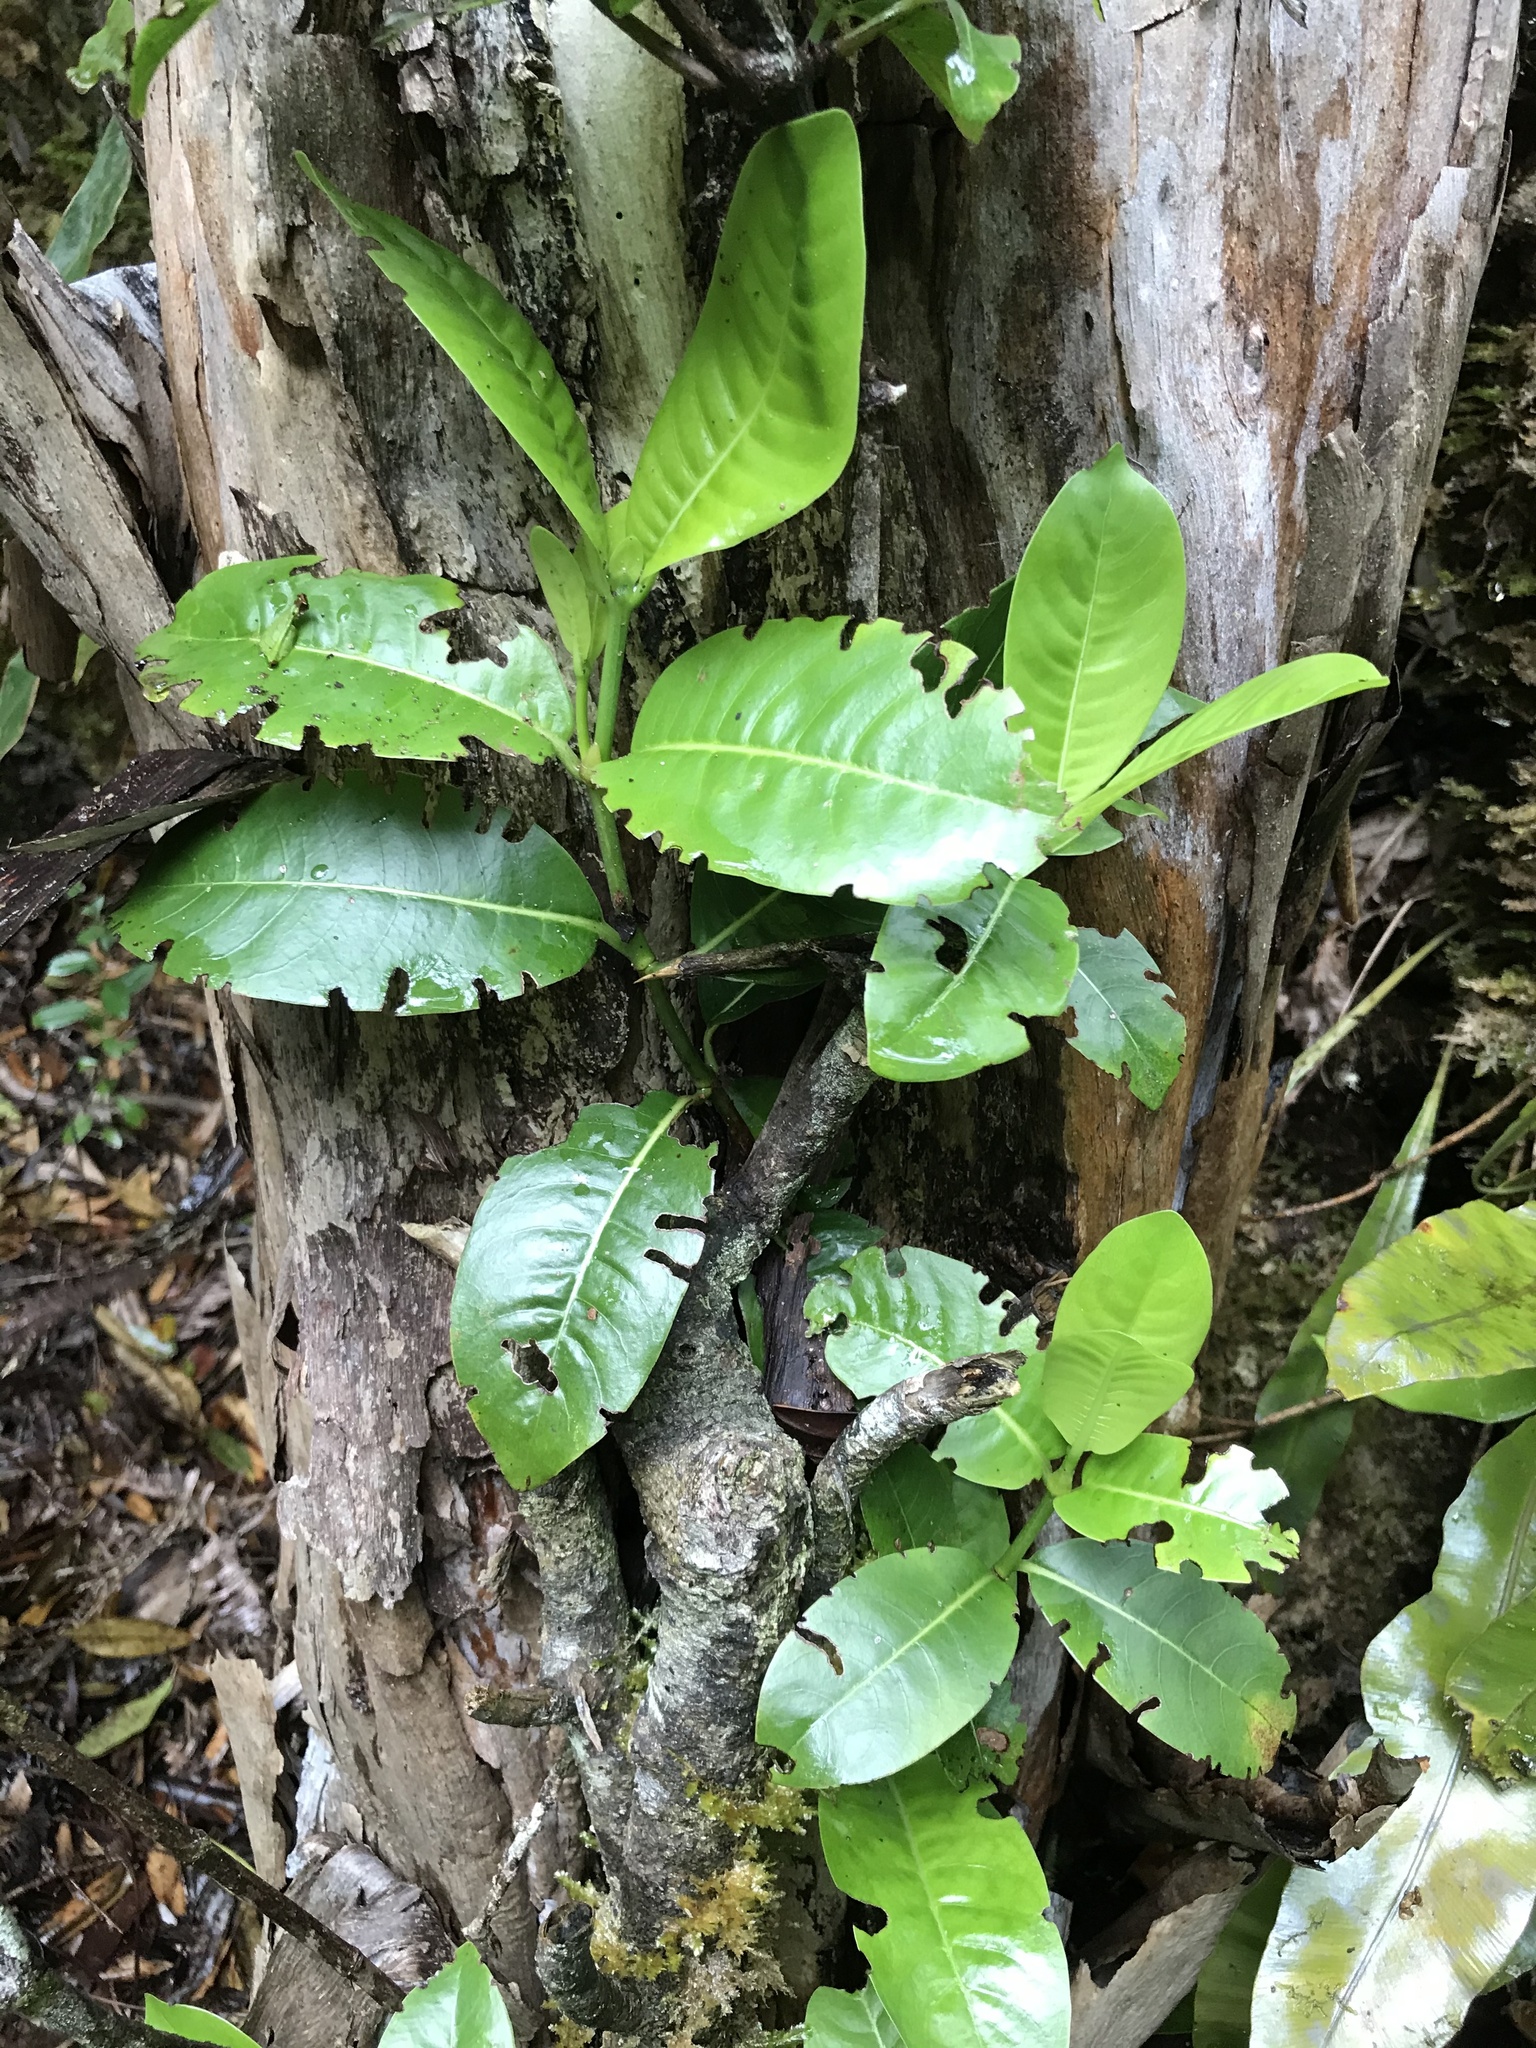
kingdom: Plantae
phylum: Tracheophyta
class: Magnoliopsida
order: Gentianales
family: Rubiaceae
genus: Psychotria
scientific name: Psychotria mariniana
